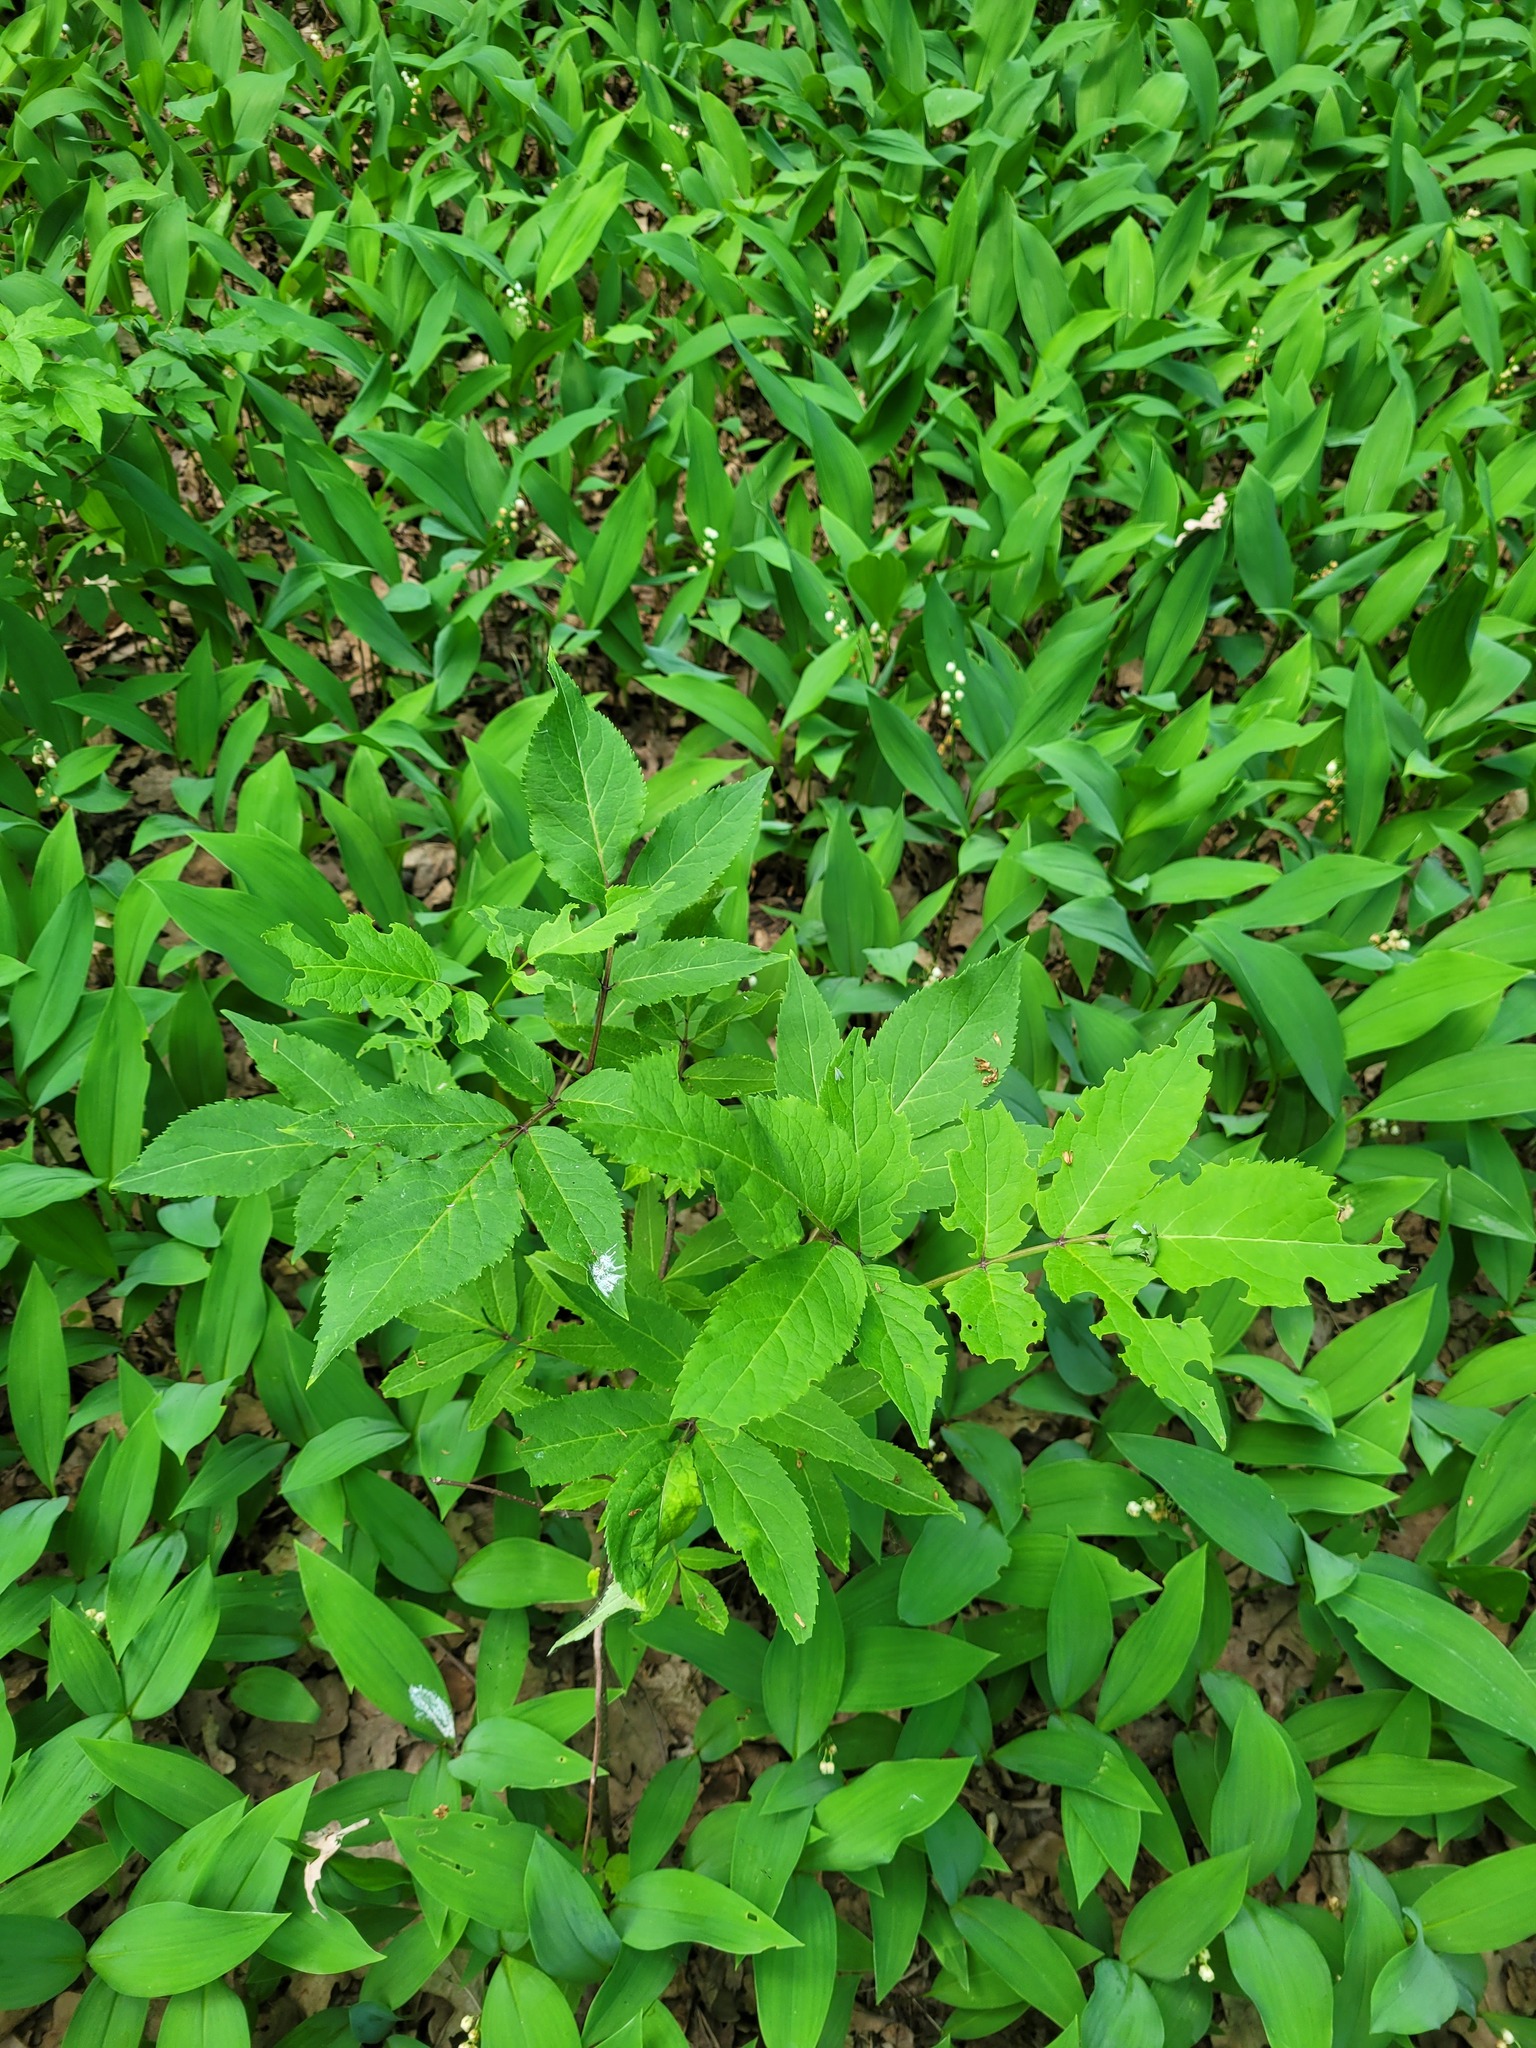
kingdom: Plantae
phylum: Tracheophyta
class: Magnoliopsida
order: Dipsacales
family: Viburnaceae
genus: Sambucus
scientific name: Sambucus racemosa
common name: Red-berried elder
